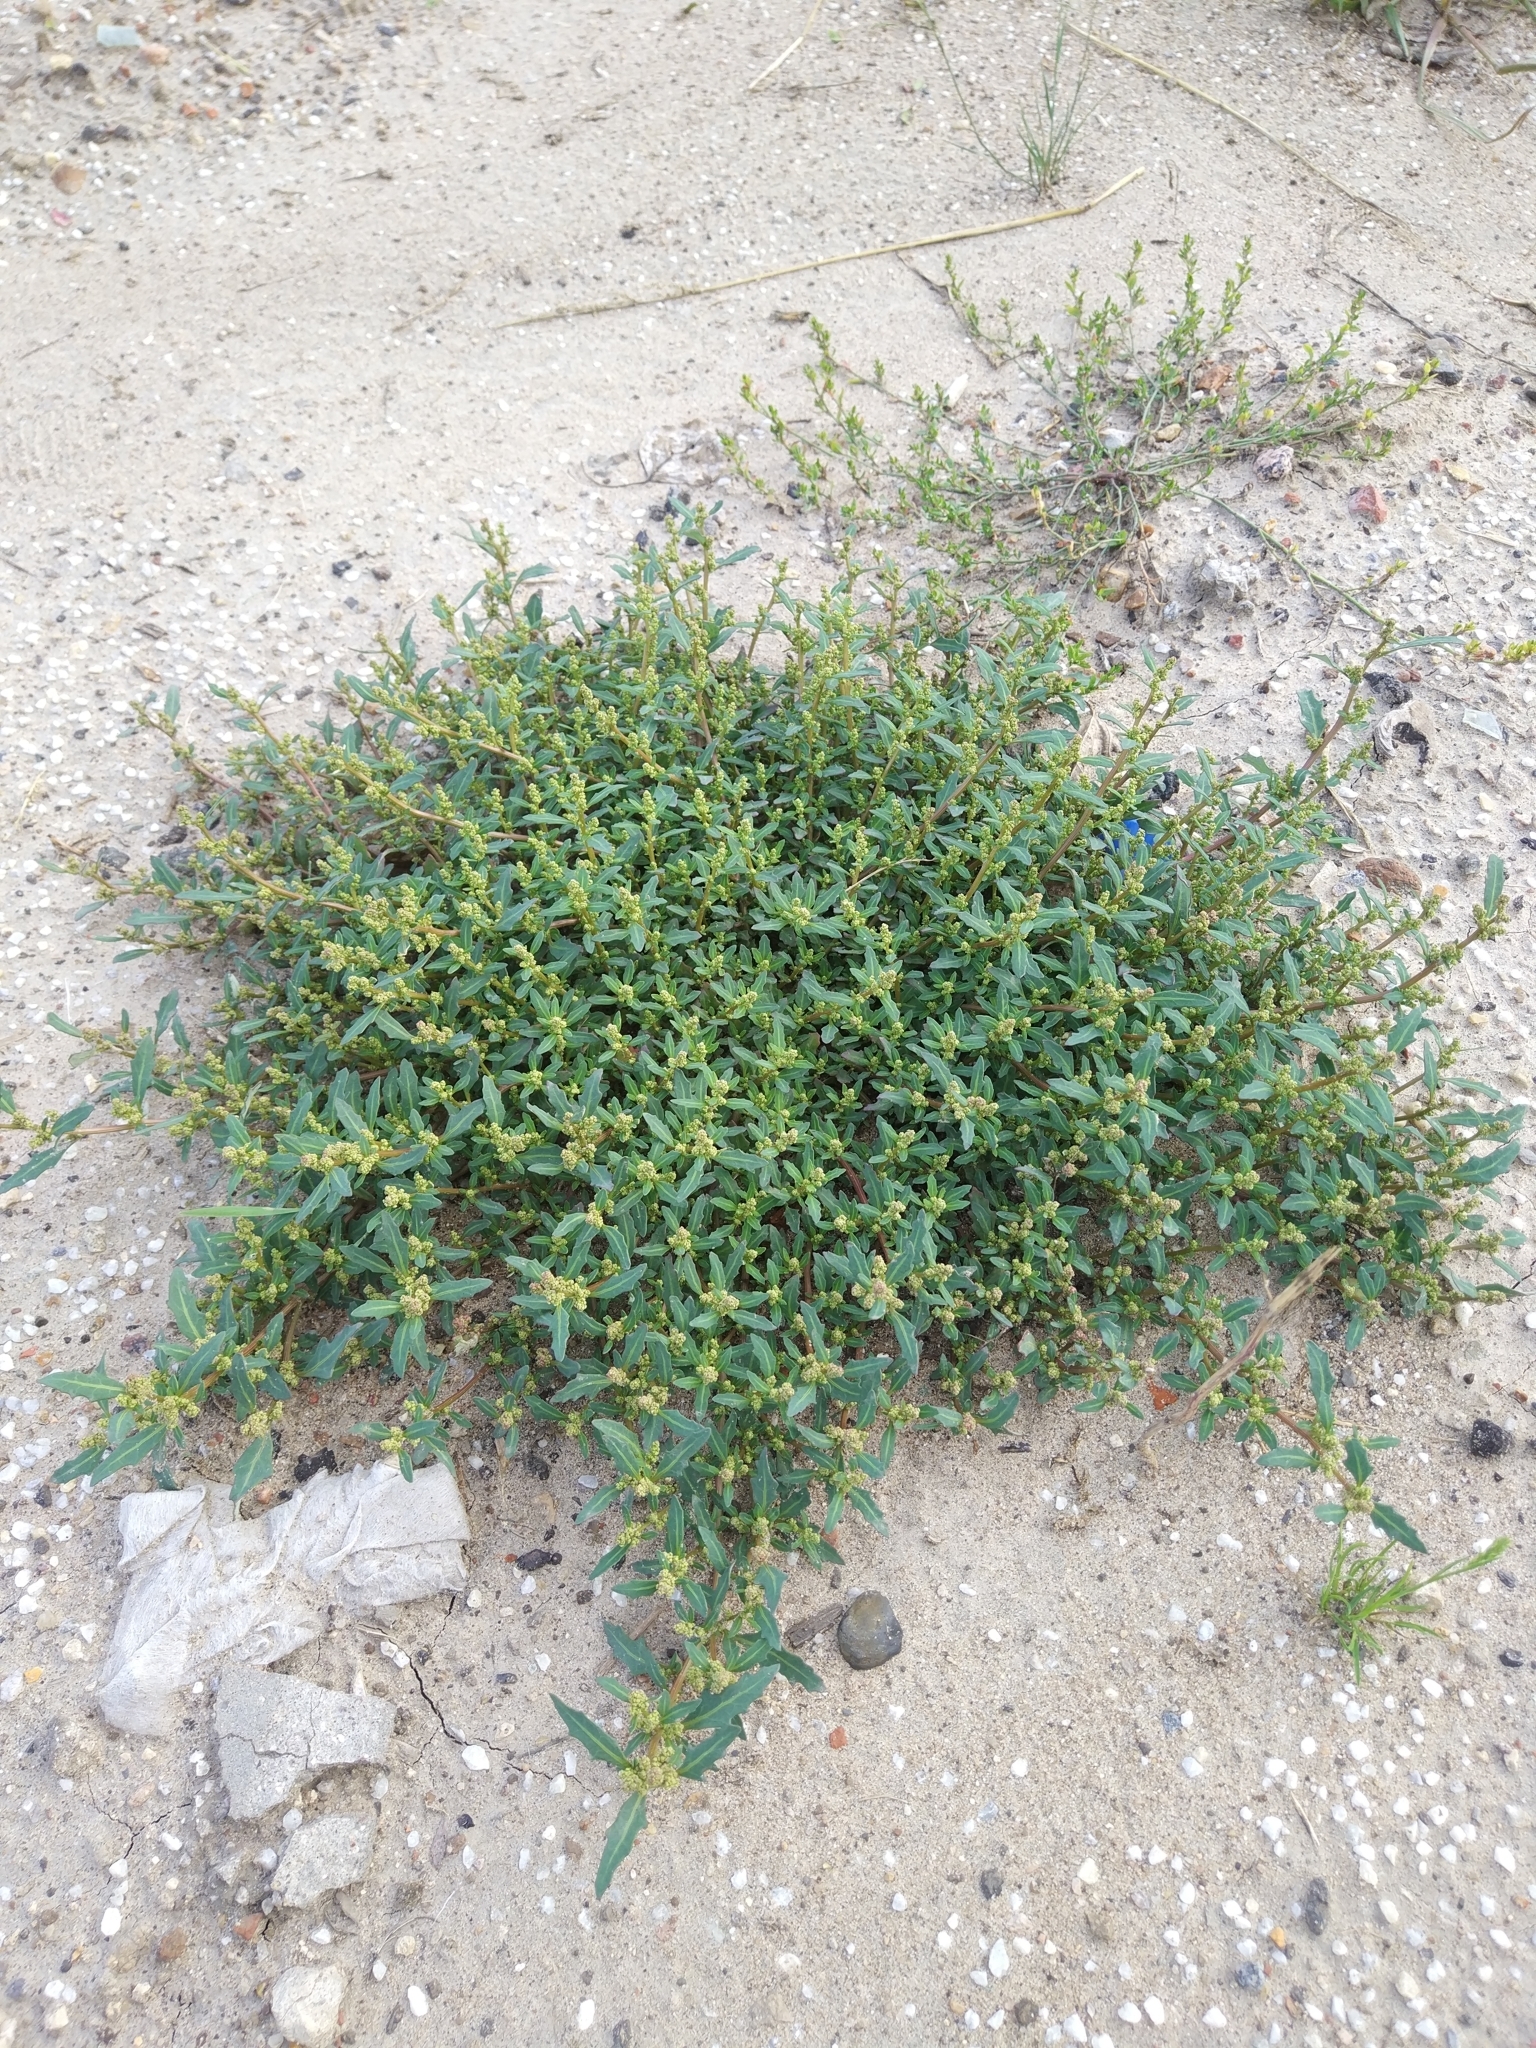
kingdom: Plantae
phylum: Tracheophyta
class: Magnoliopsida
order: Caryophyllales
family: Amaranthaceae
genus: Oxybasis
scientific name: Oxybasis glauca
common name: Glaucous goosefoot
